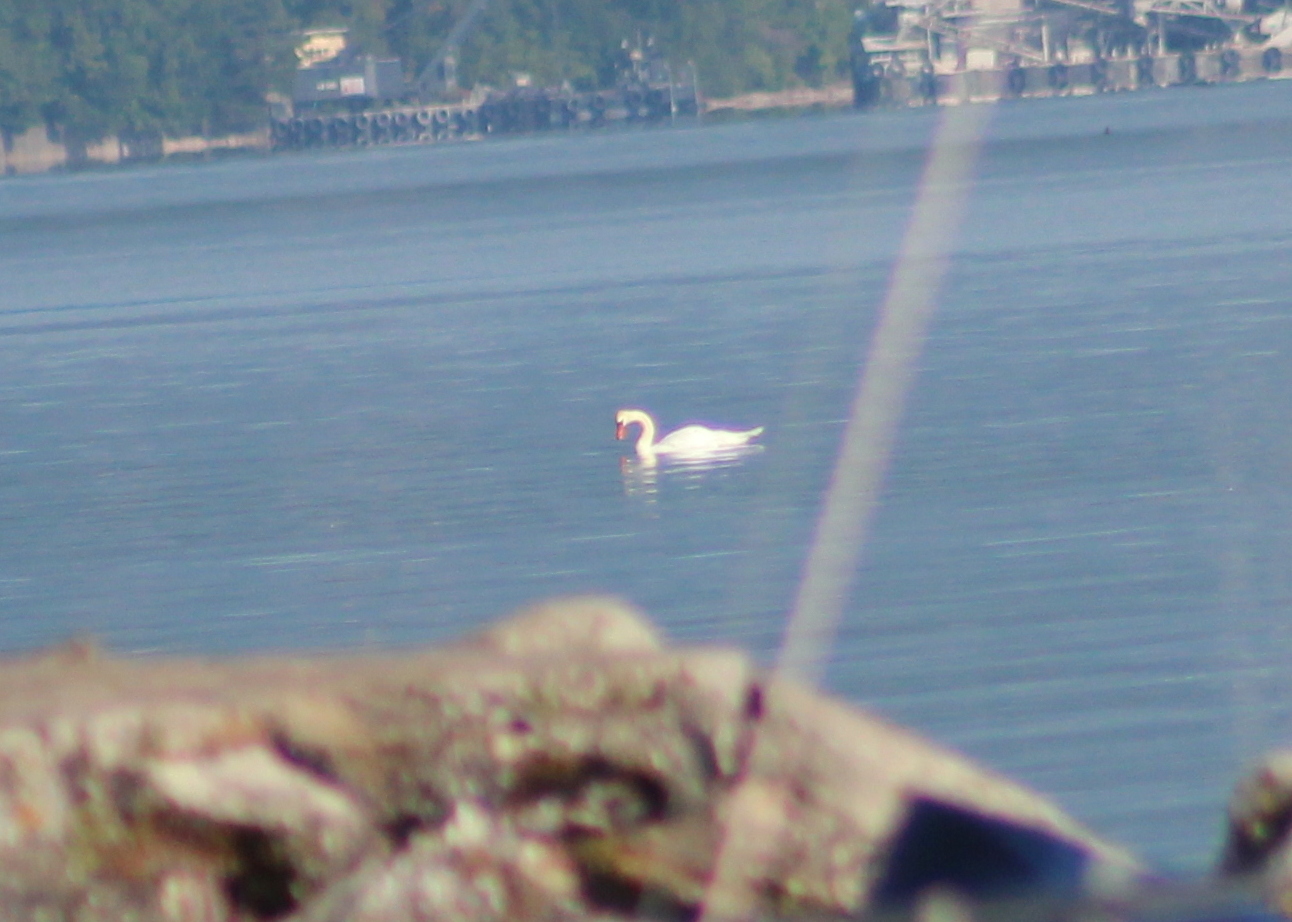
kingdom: Animalia
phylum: Chordata
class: Aves
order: Anseriformes
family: Anatidae
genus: Cygnus
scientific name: Cygnus olor
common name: Mute swan
